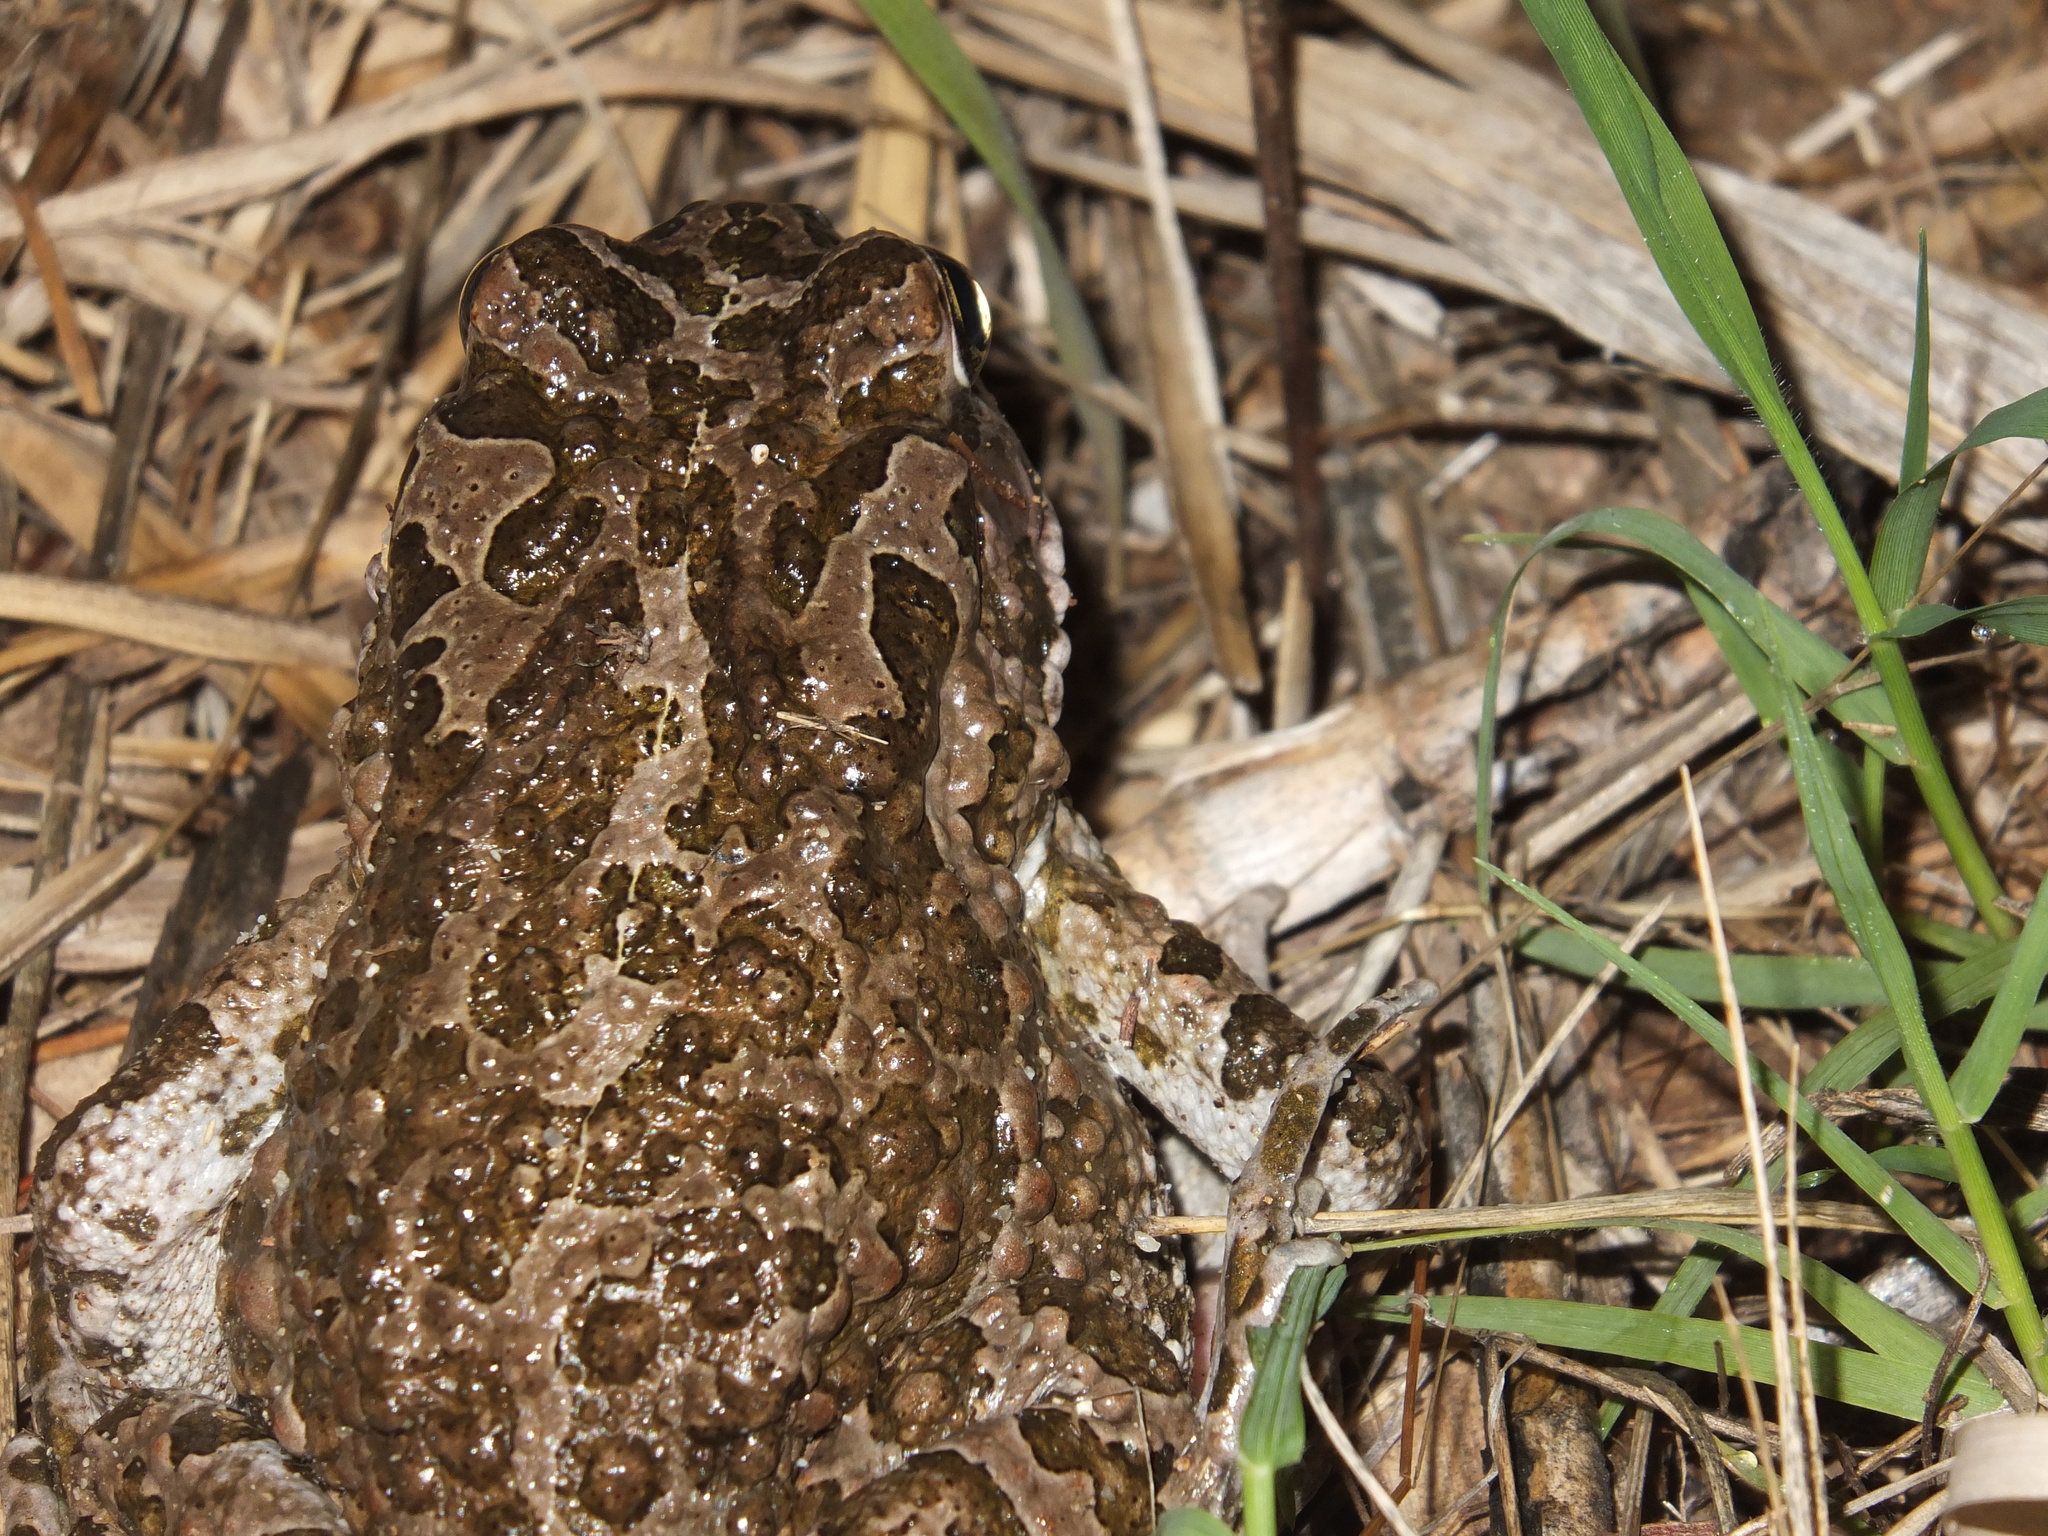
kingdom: Animalia
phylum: Chordata
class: Amphibia
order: Anura
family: Bufonidae
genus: Bufotes
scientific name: Bufotes viridis
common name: European green toad
